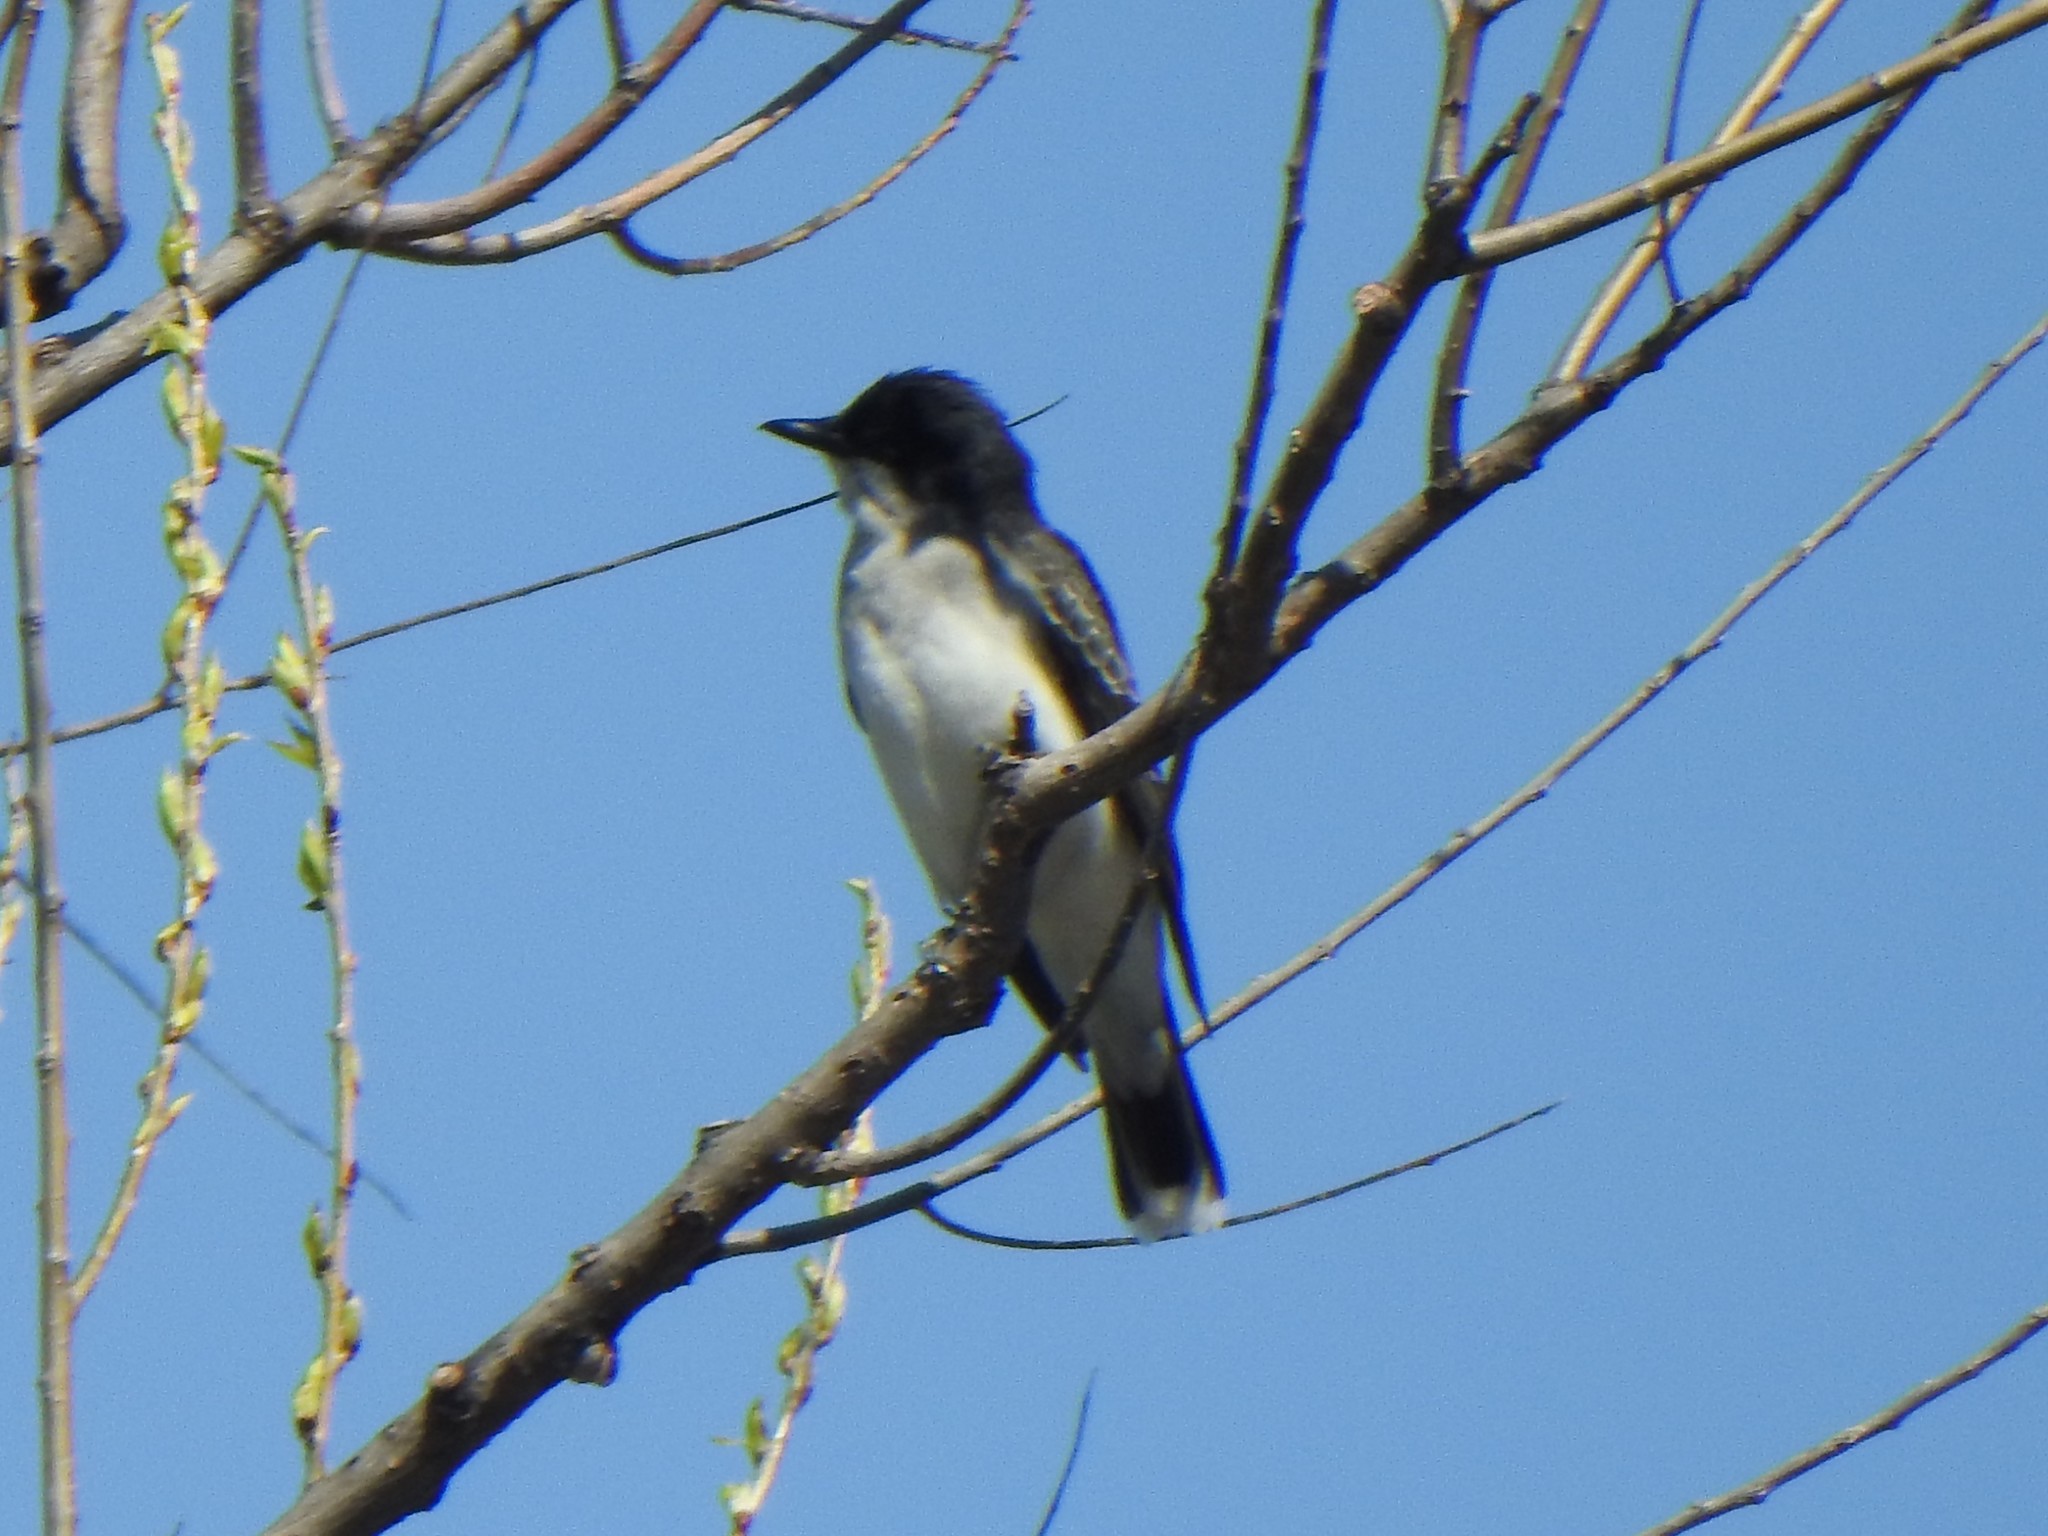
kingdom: Animalia
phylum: Chordata
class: Aves
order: Passeriformes
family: Tyrannidae
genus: Tyrannus
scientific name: Tyrannus tyrannus
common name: Eastern kingbird
